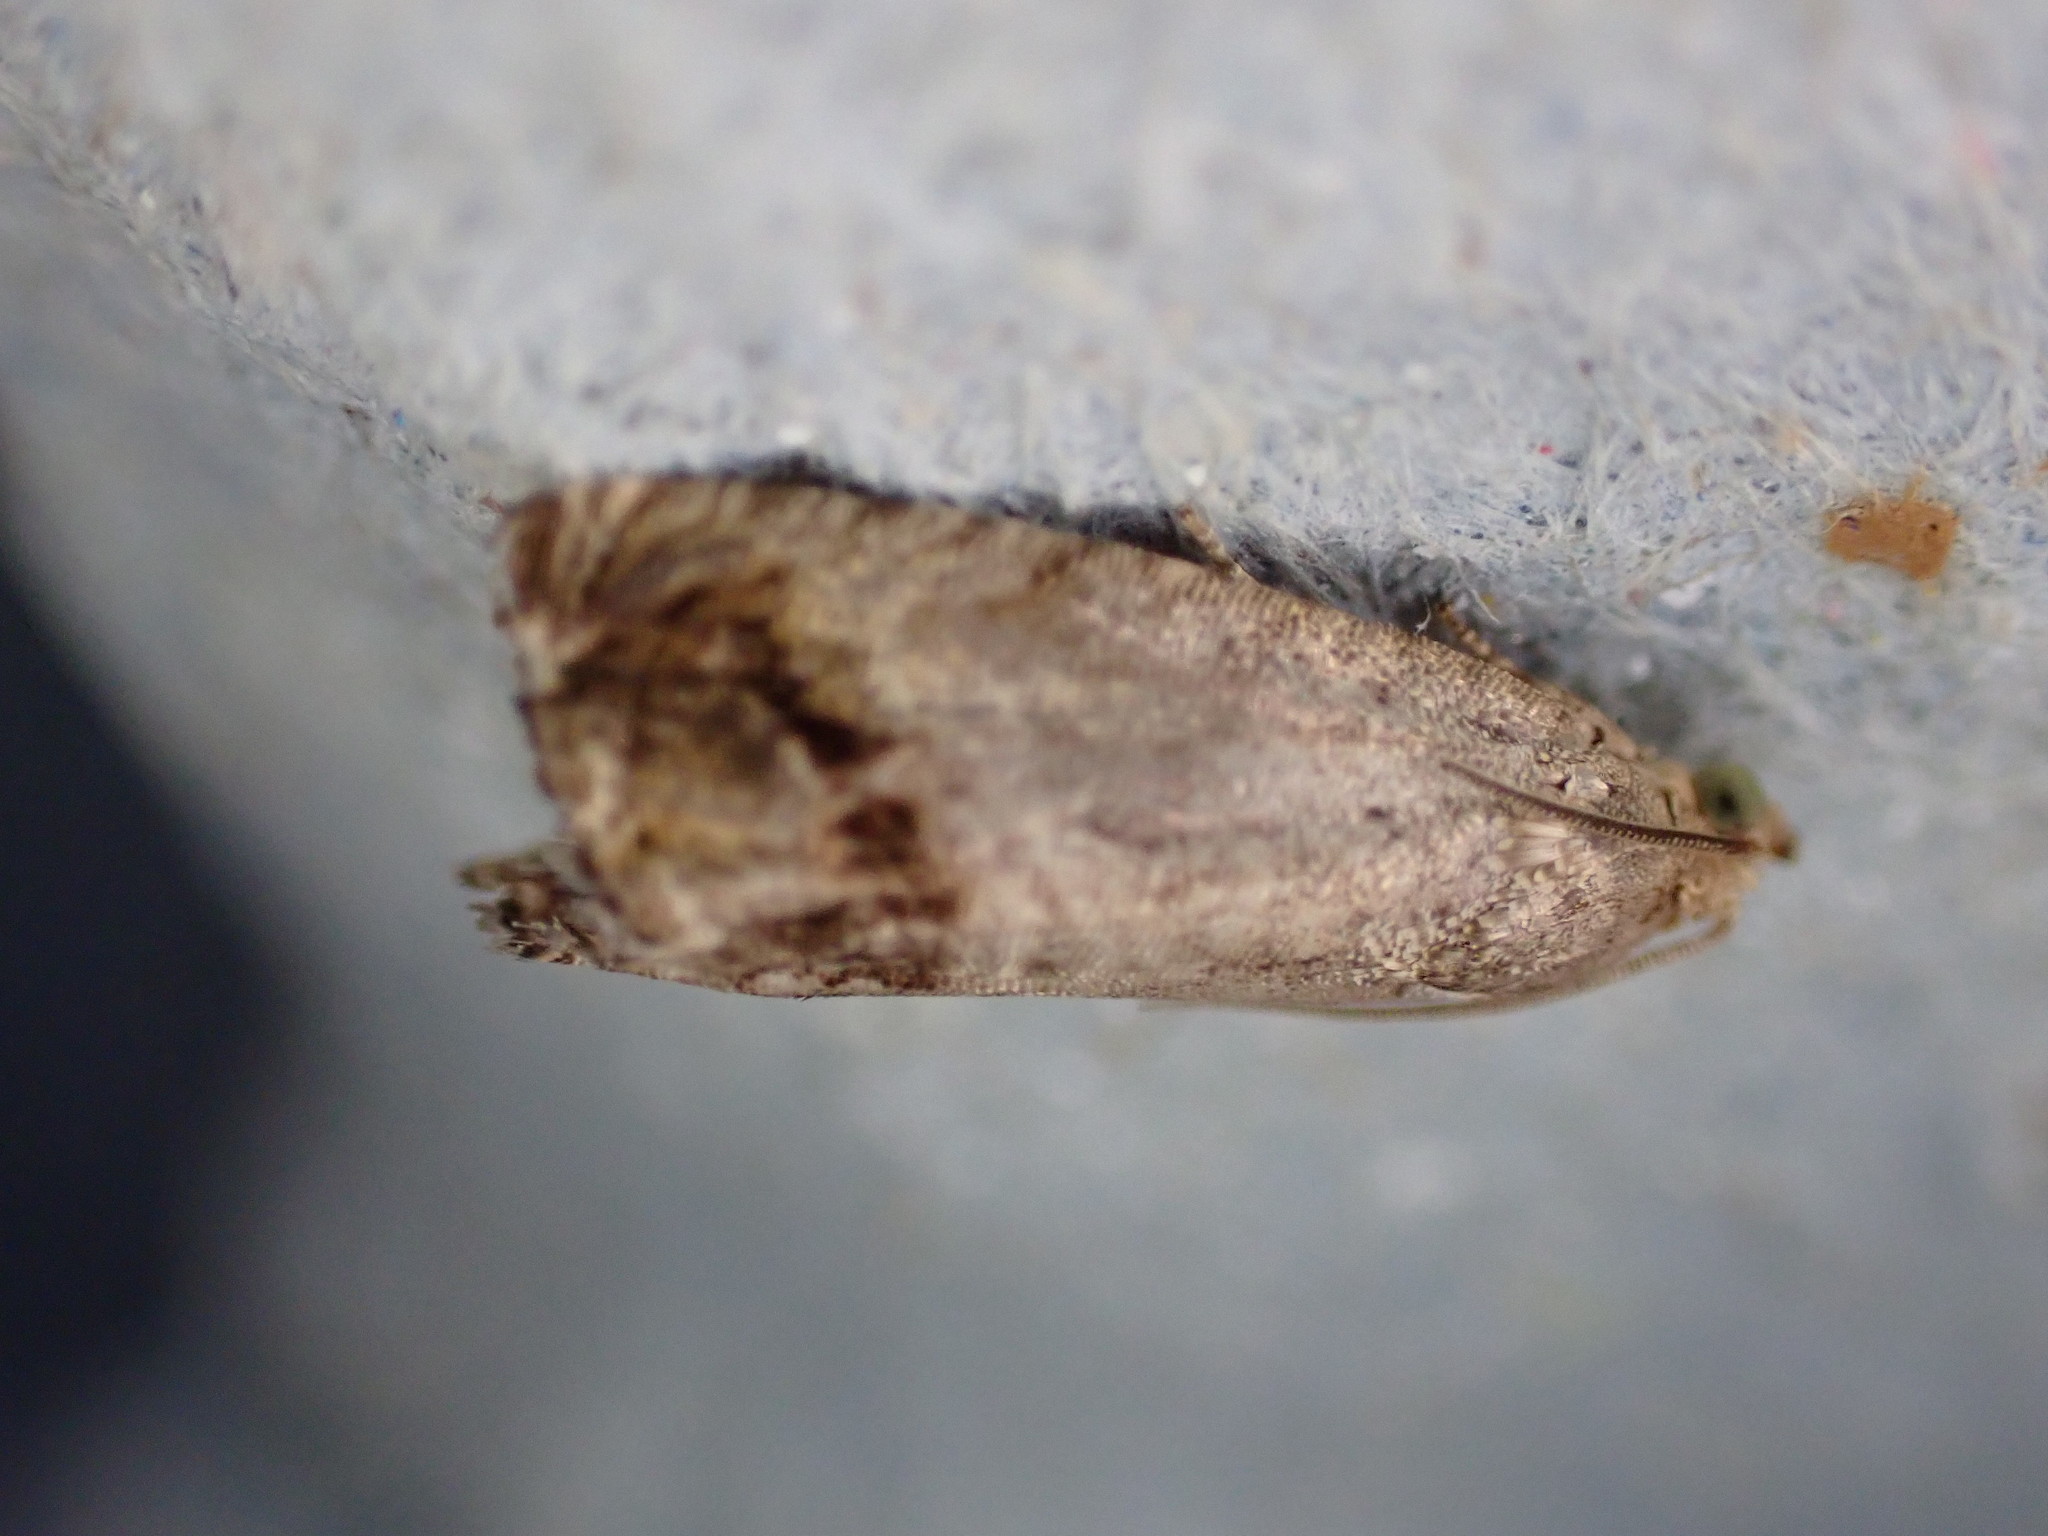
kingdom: Animalia
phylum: Arthropoda
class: Insecta
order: Lepidoptera
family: Tortricidae
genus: Cydia
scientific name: Cydia splendana
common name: De: kastanienwickler, eichenwickler es: oruga de la castaña fr: carpocapse des châtaignes it: cidia o tortrice tardiva delle castagne pt: bichado das castanhas gb: acorn moth, chestnut fruit tortrix
